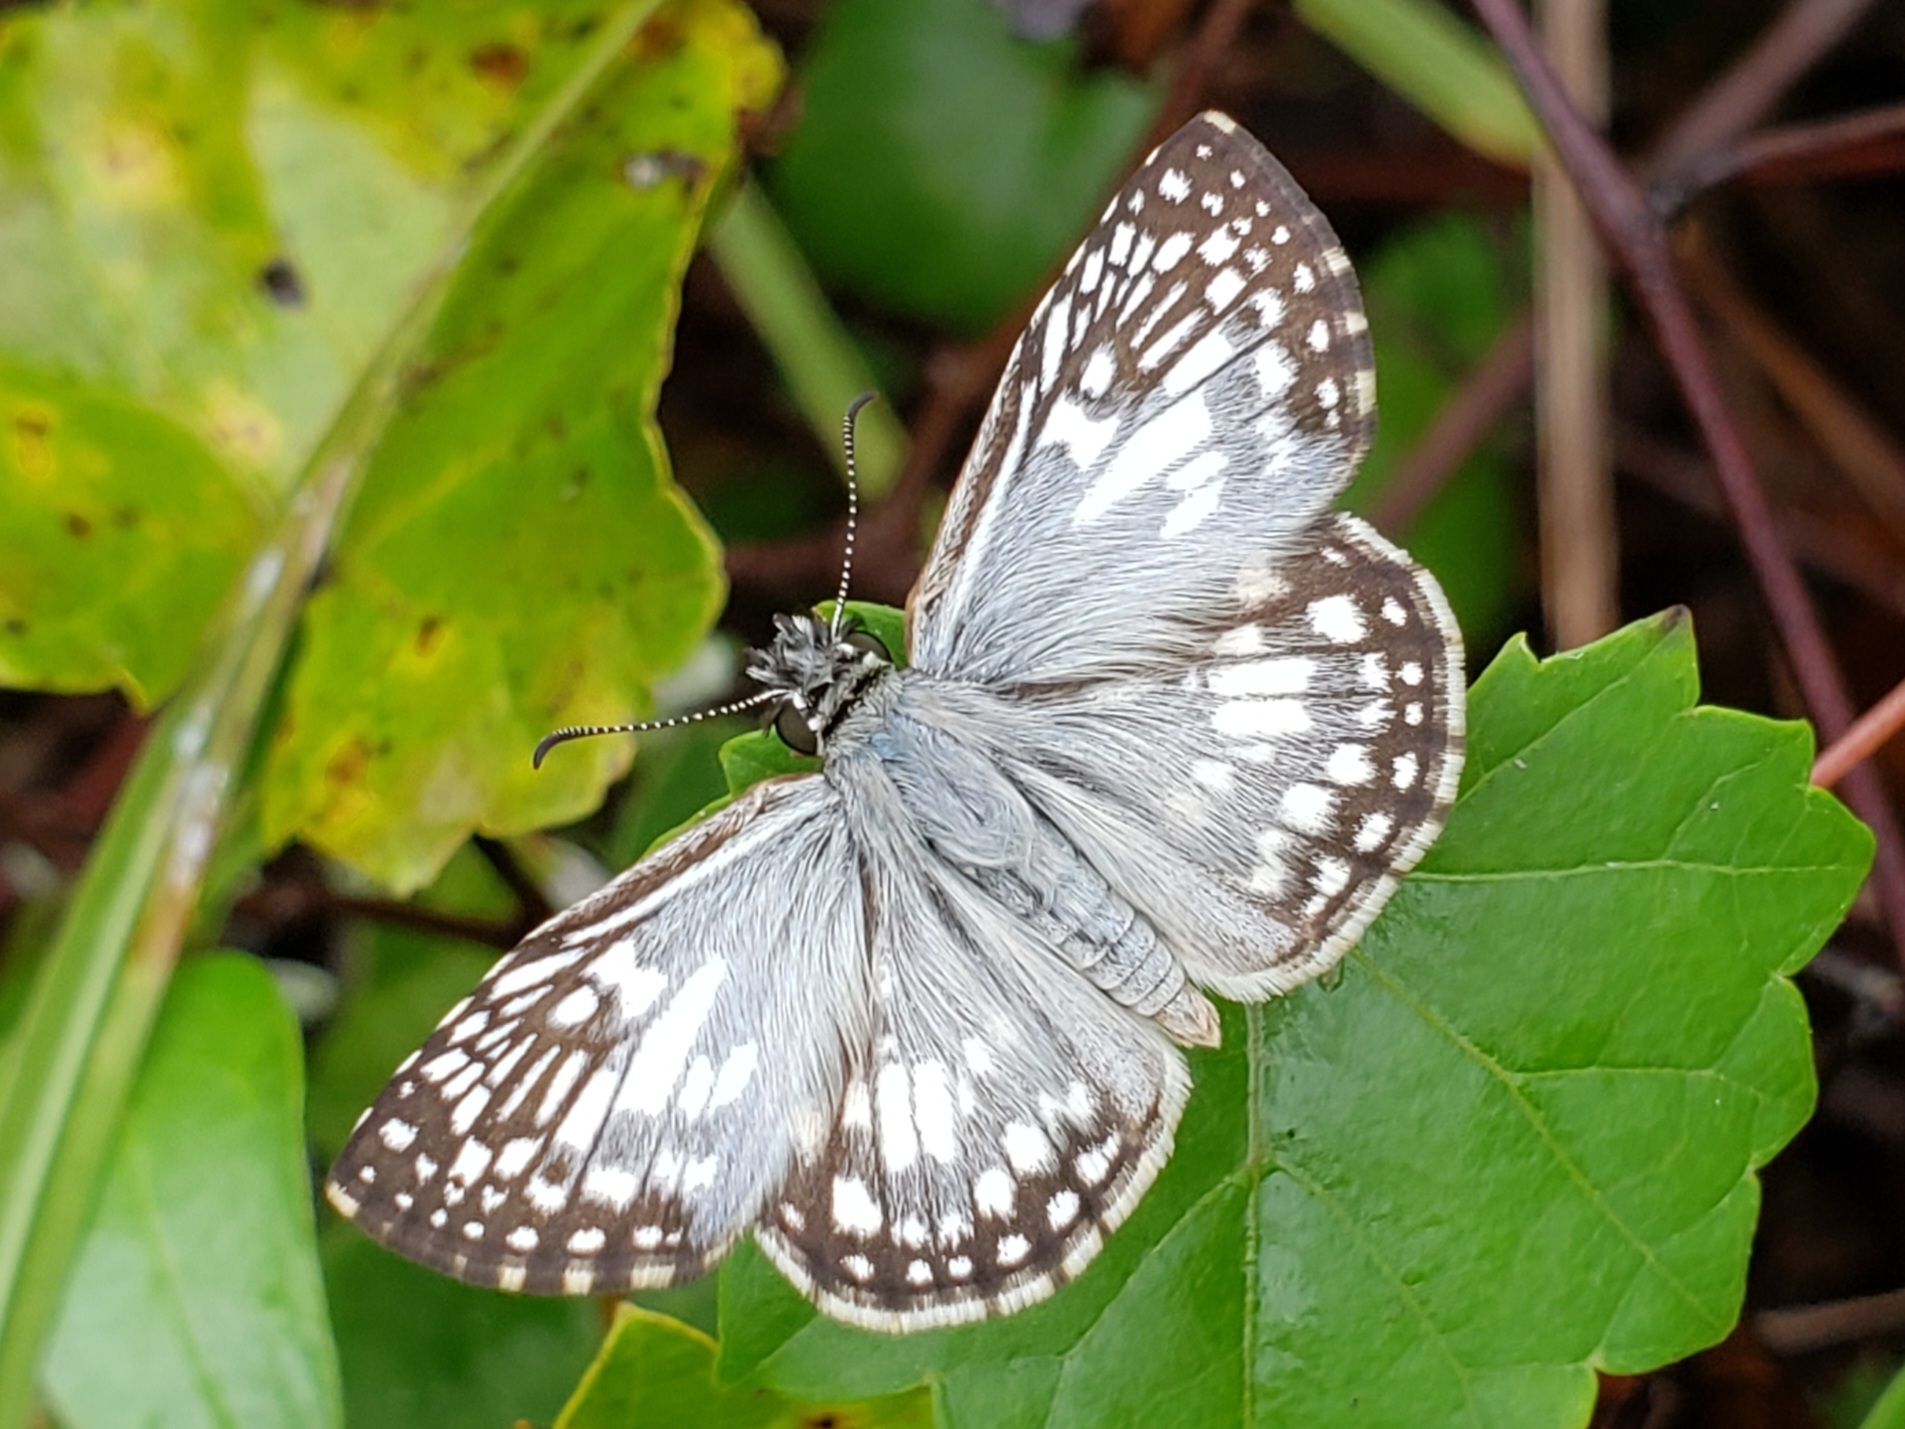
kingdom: Animalia
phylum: Arthropoda
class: Insecta
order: Lepidoptera
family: Hesperiidae
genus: Pyrgus
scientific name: Pyrgus oileus
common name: Tropical checkered-skipper
